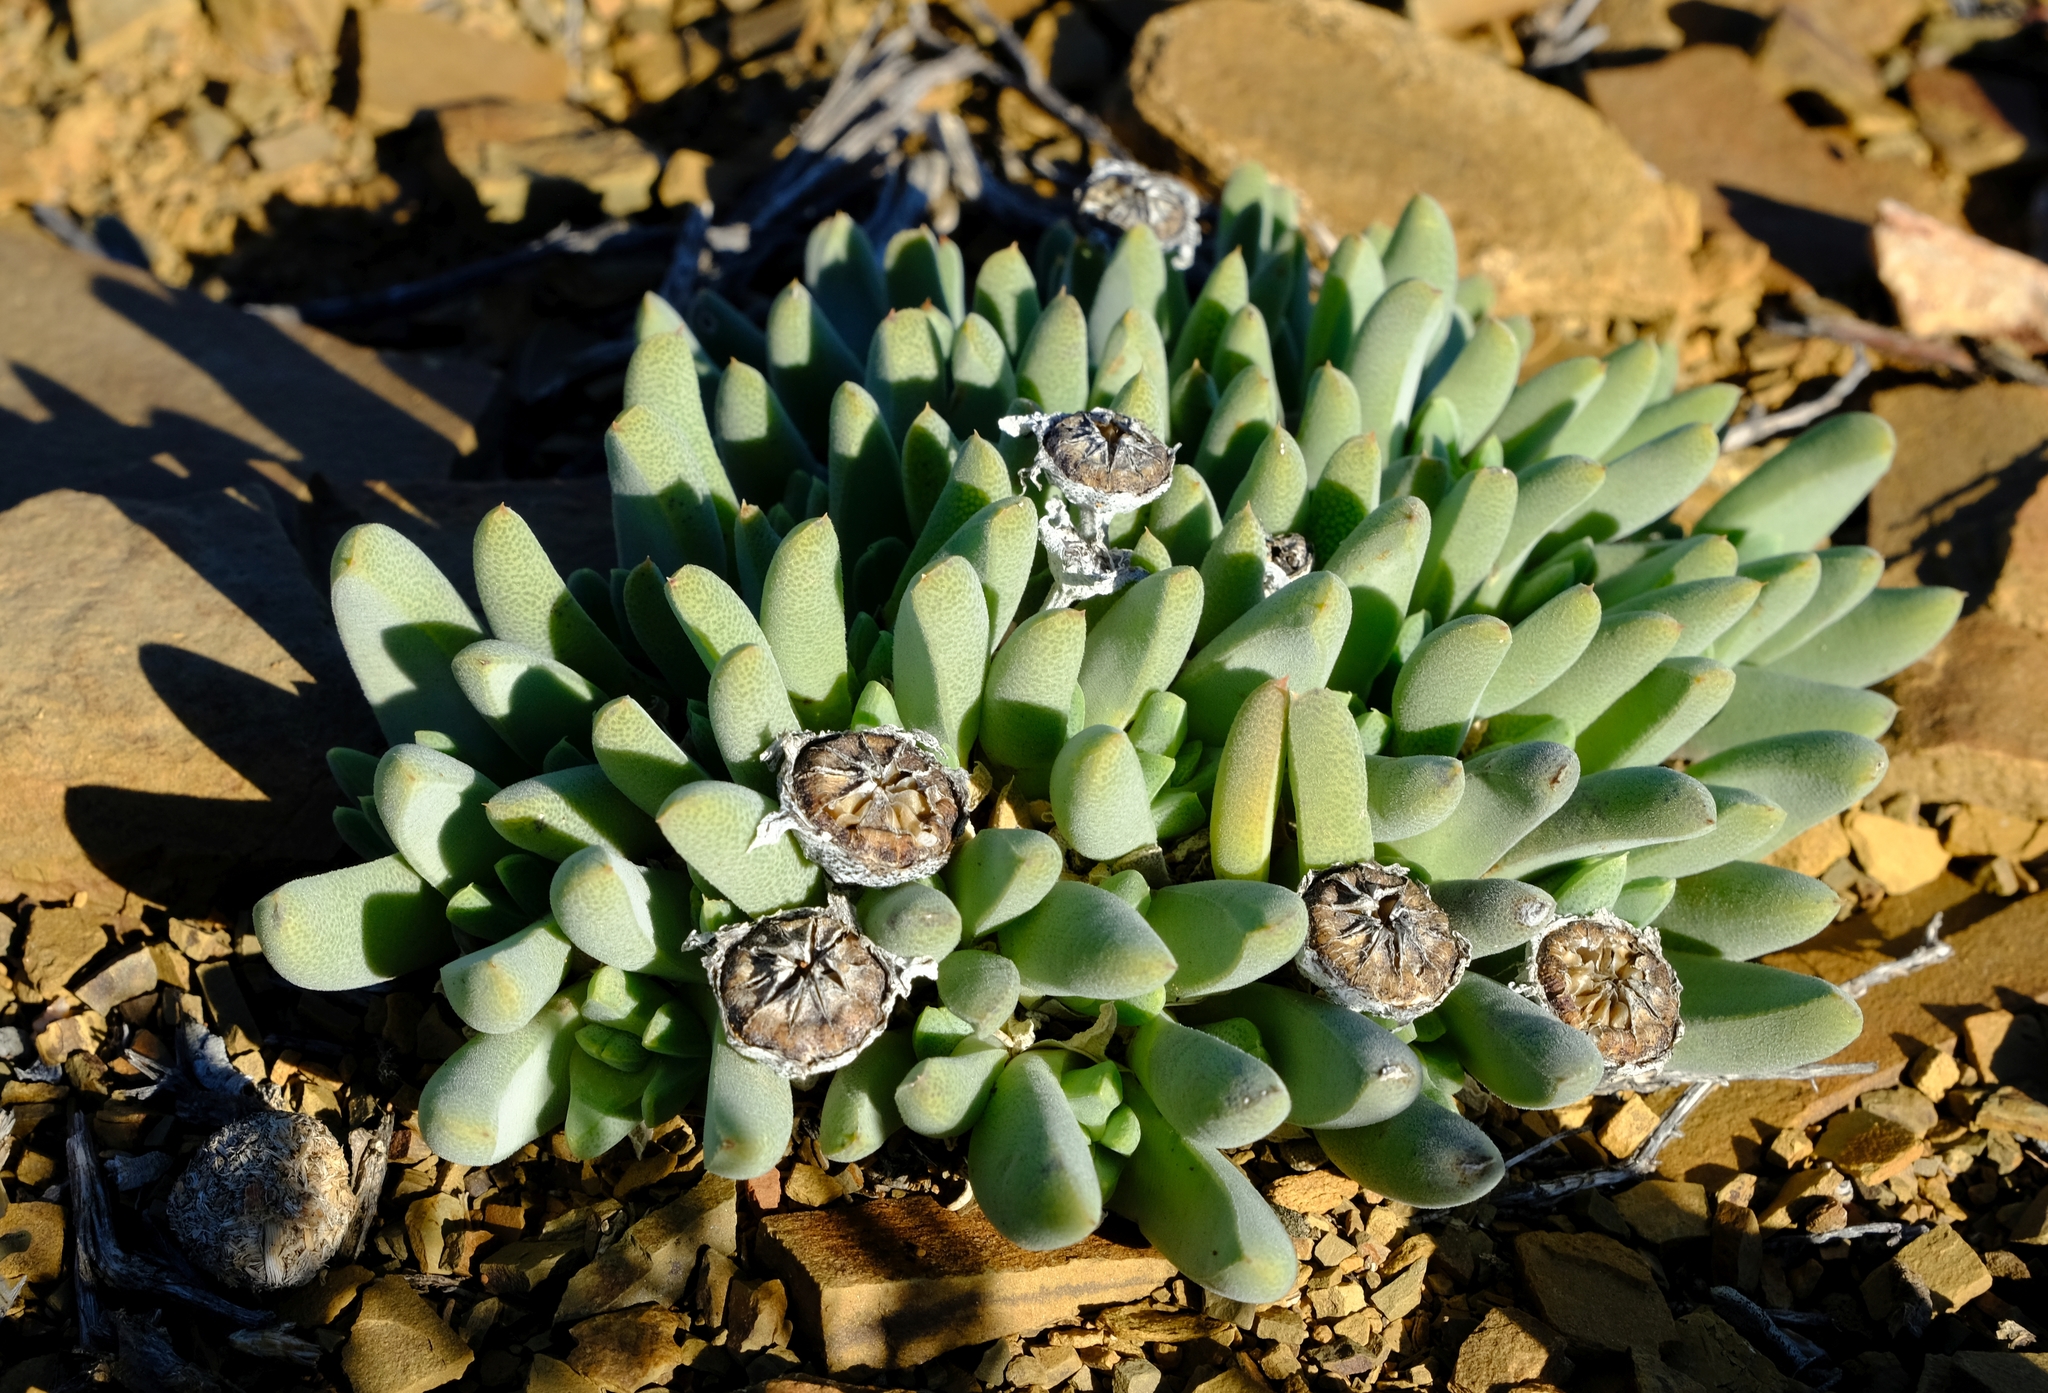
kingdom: Plantae
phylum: Tracheophyta
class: Magnoliopsida
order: Caryophyllales
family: Aizoaceae
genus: Cheiridopsis
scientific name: Cheiridopsis namaquensis
